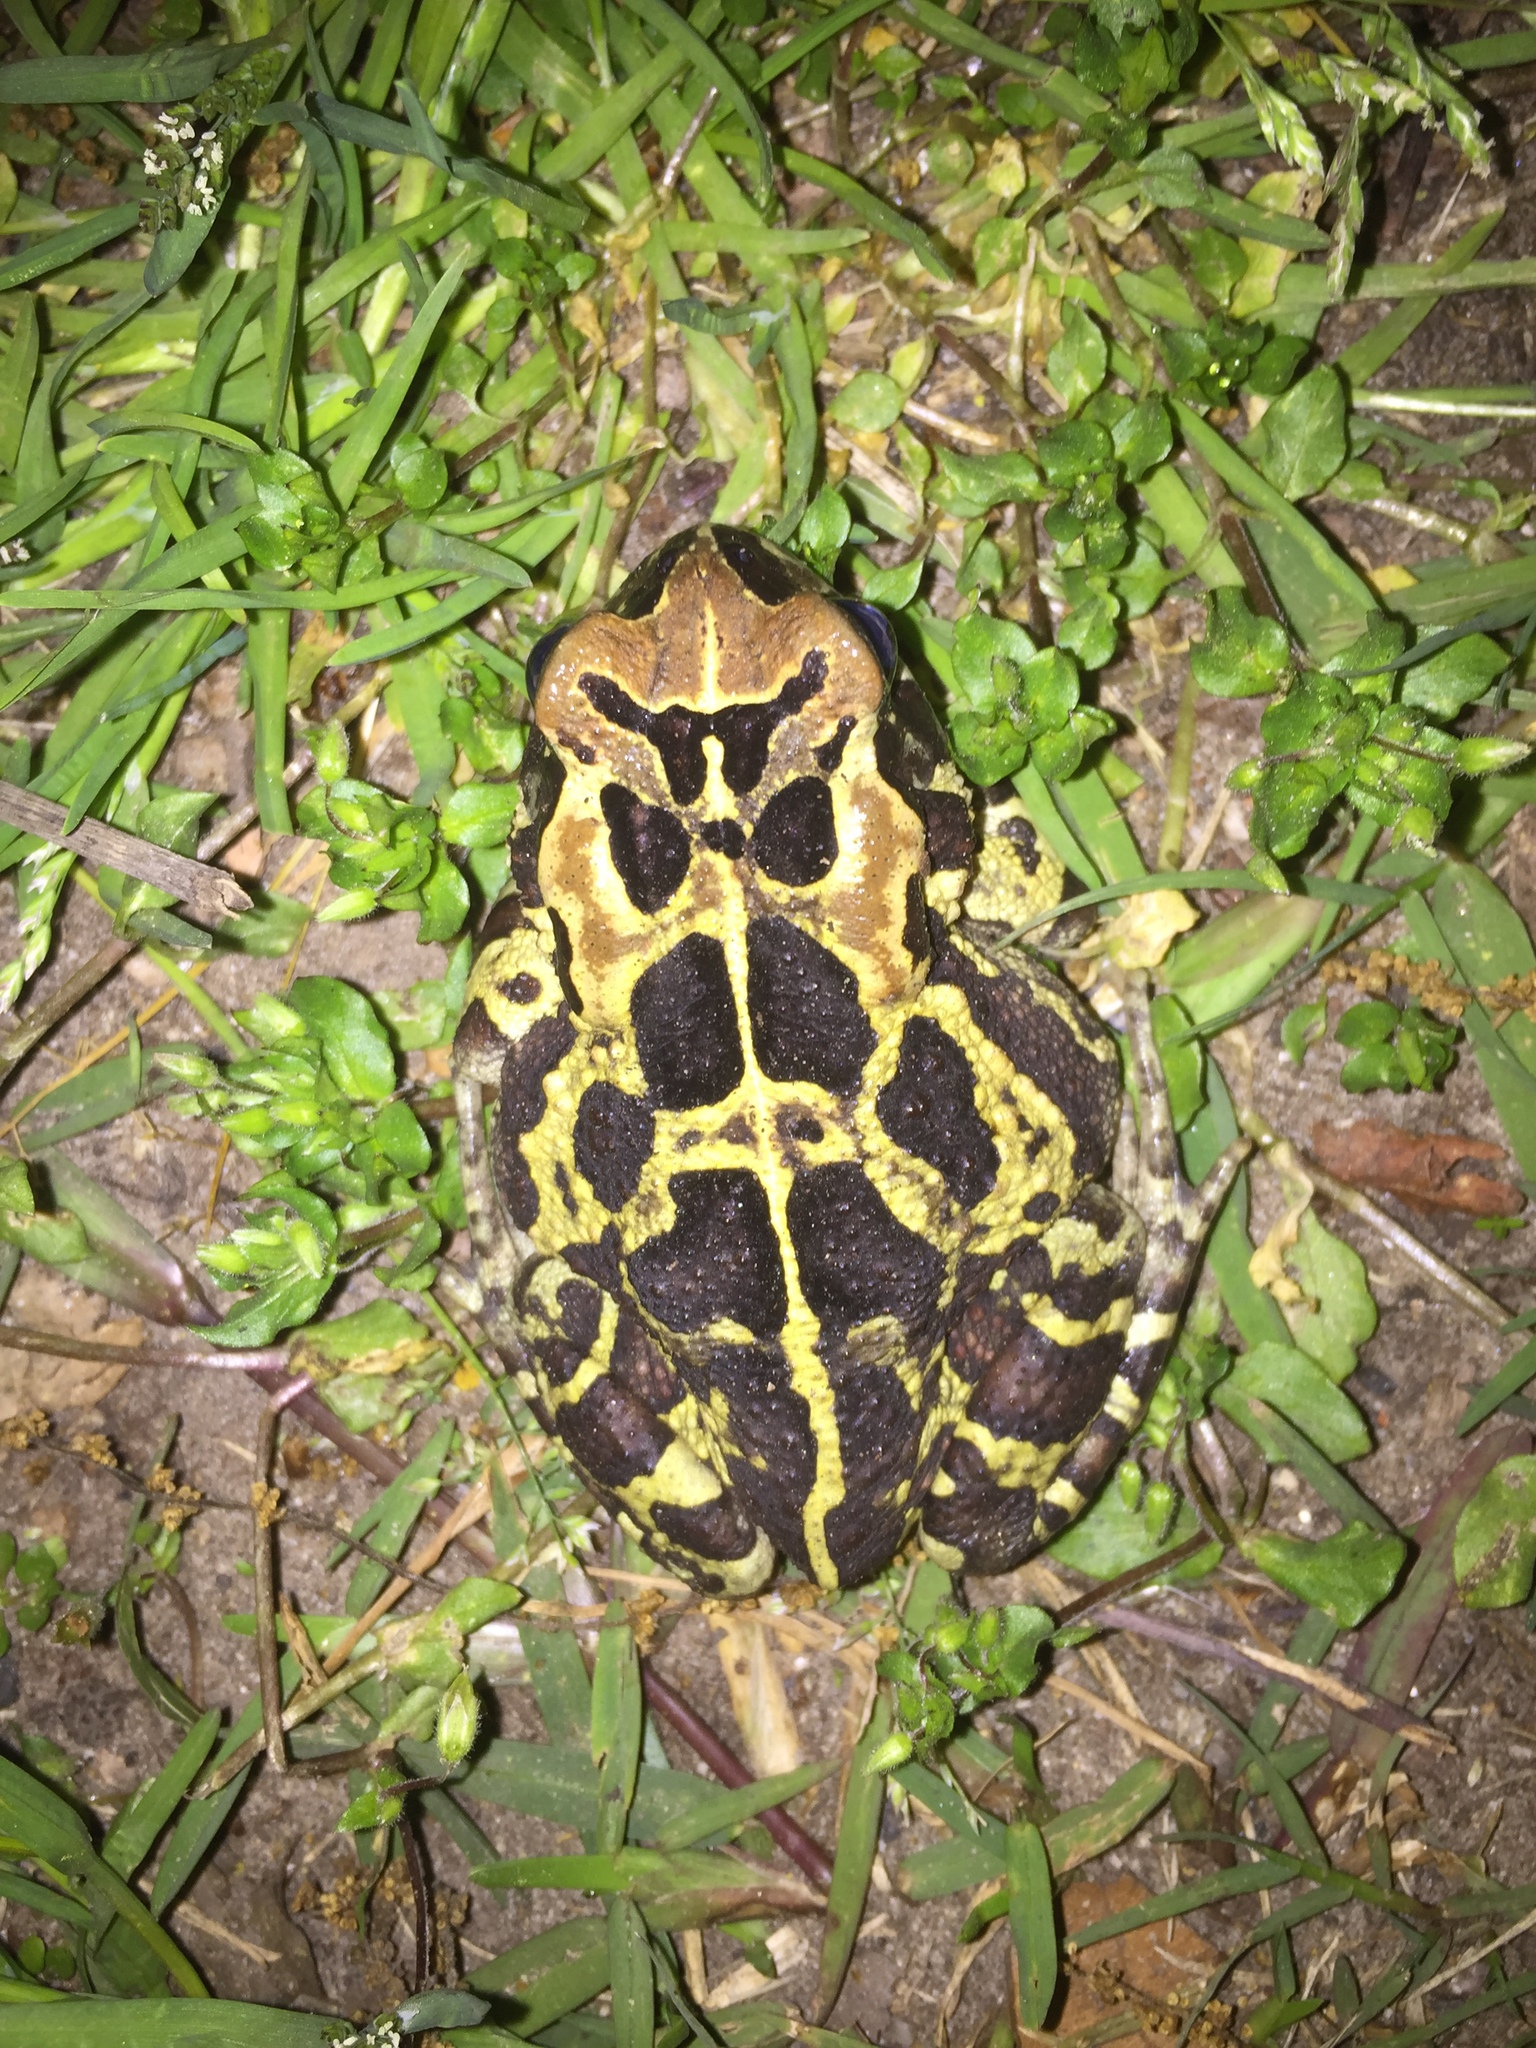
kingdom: Animalia
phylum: Chordata
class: Amphibia
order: Anura
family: Bufonidae
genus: Sclerophrys
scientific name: Sclerophrys pantherina
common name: Panther toad
